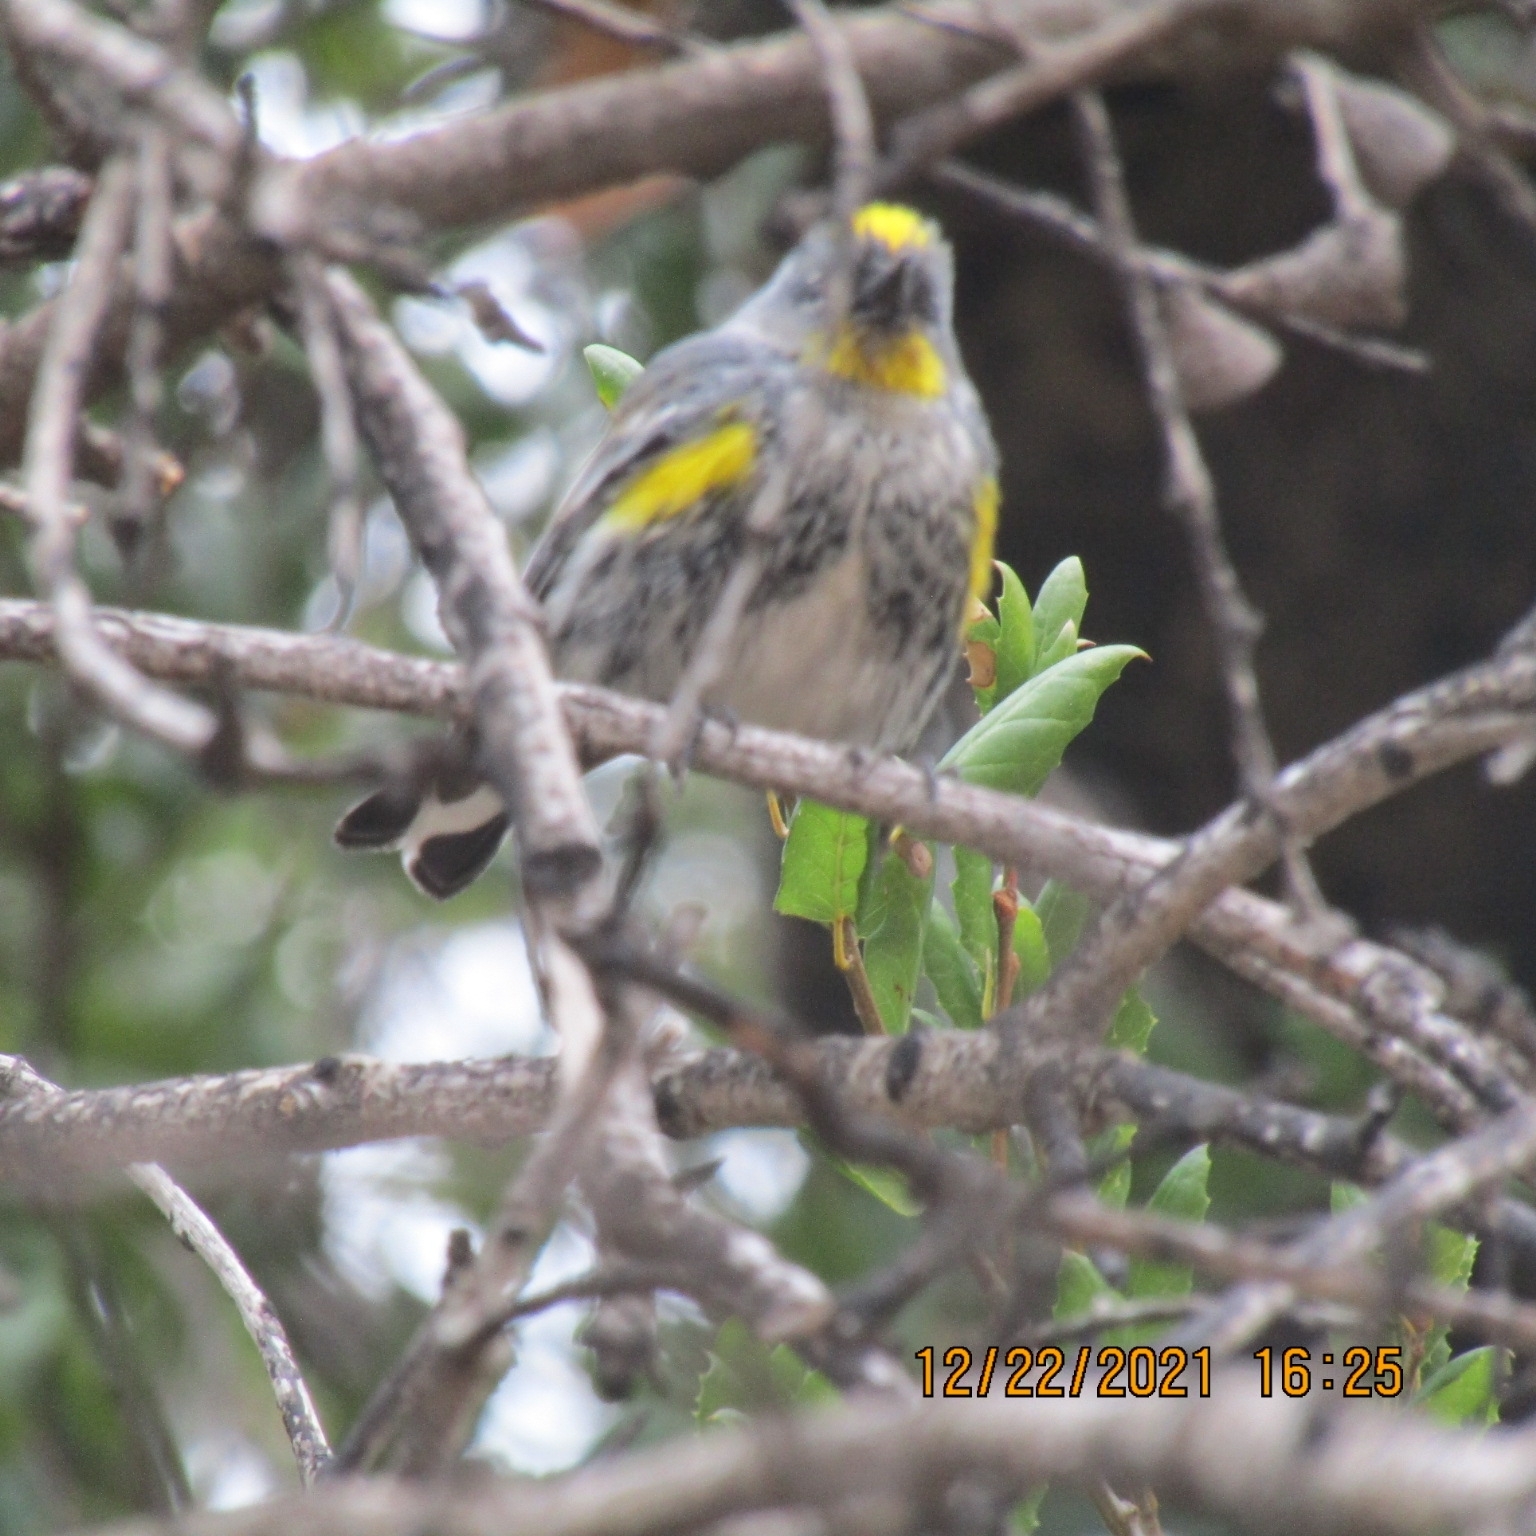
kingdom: Animalia
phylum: Chordata
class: Aves
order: Passeriformes
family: Parulidae
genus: Setophaga
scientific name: Setophaga coronata
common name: Myrtle warbler
